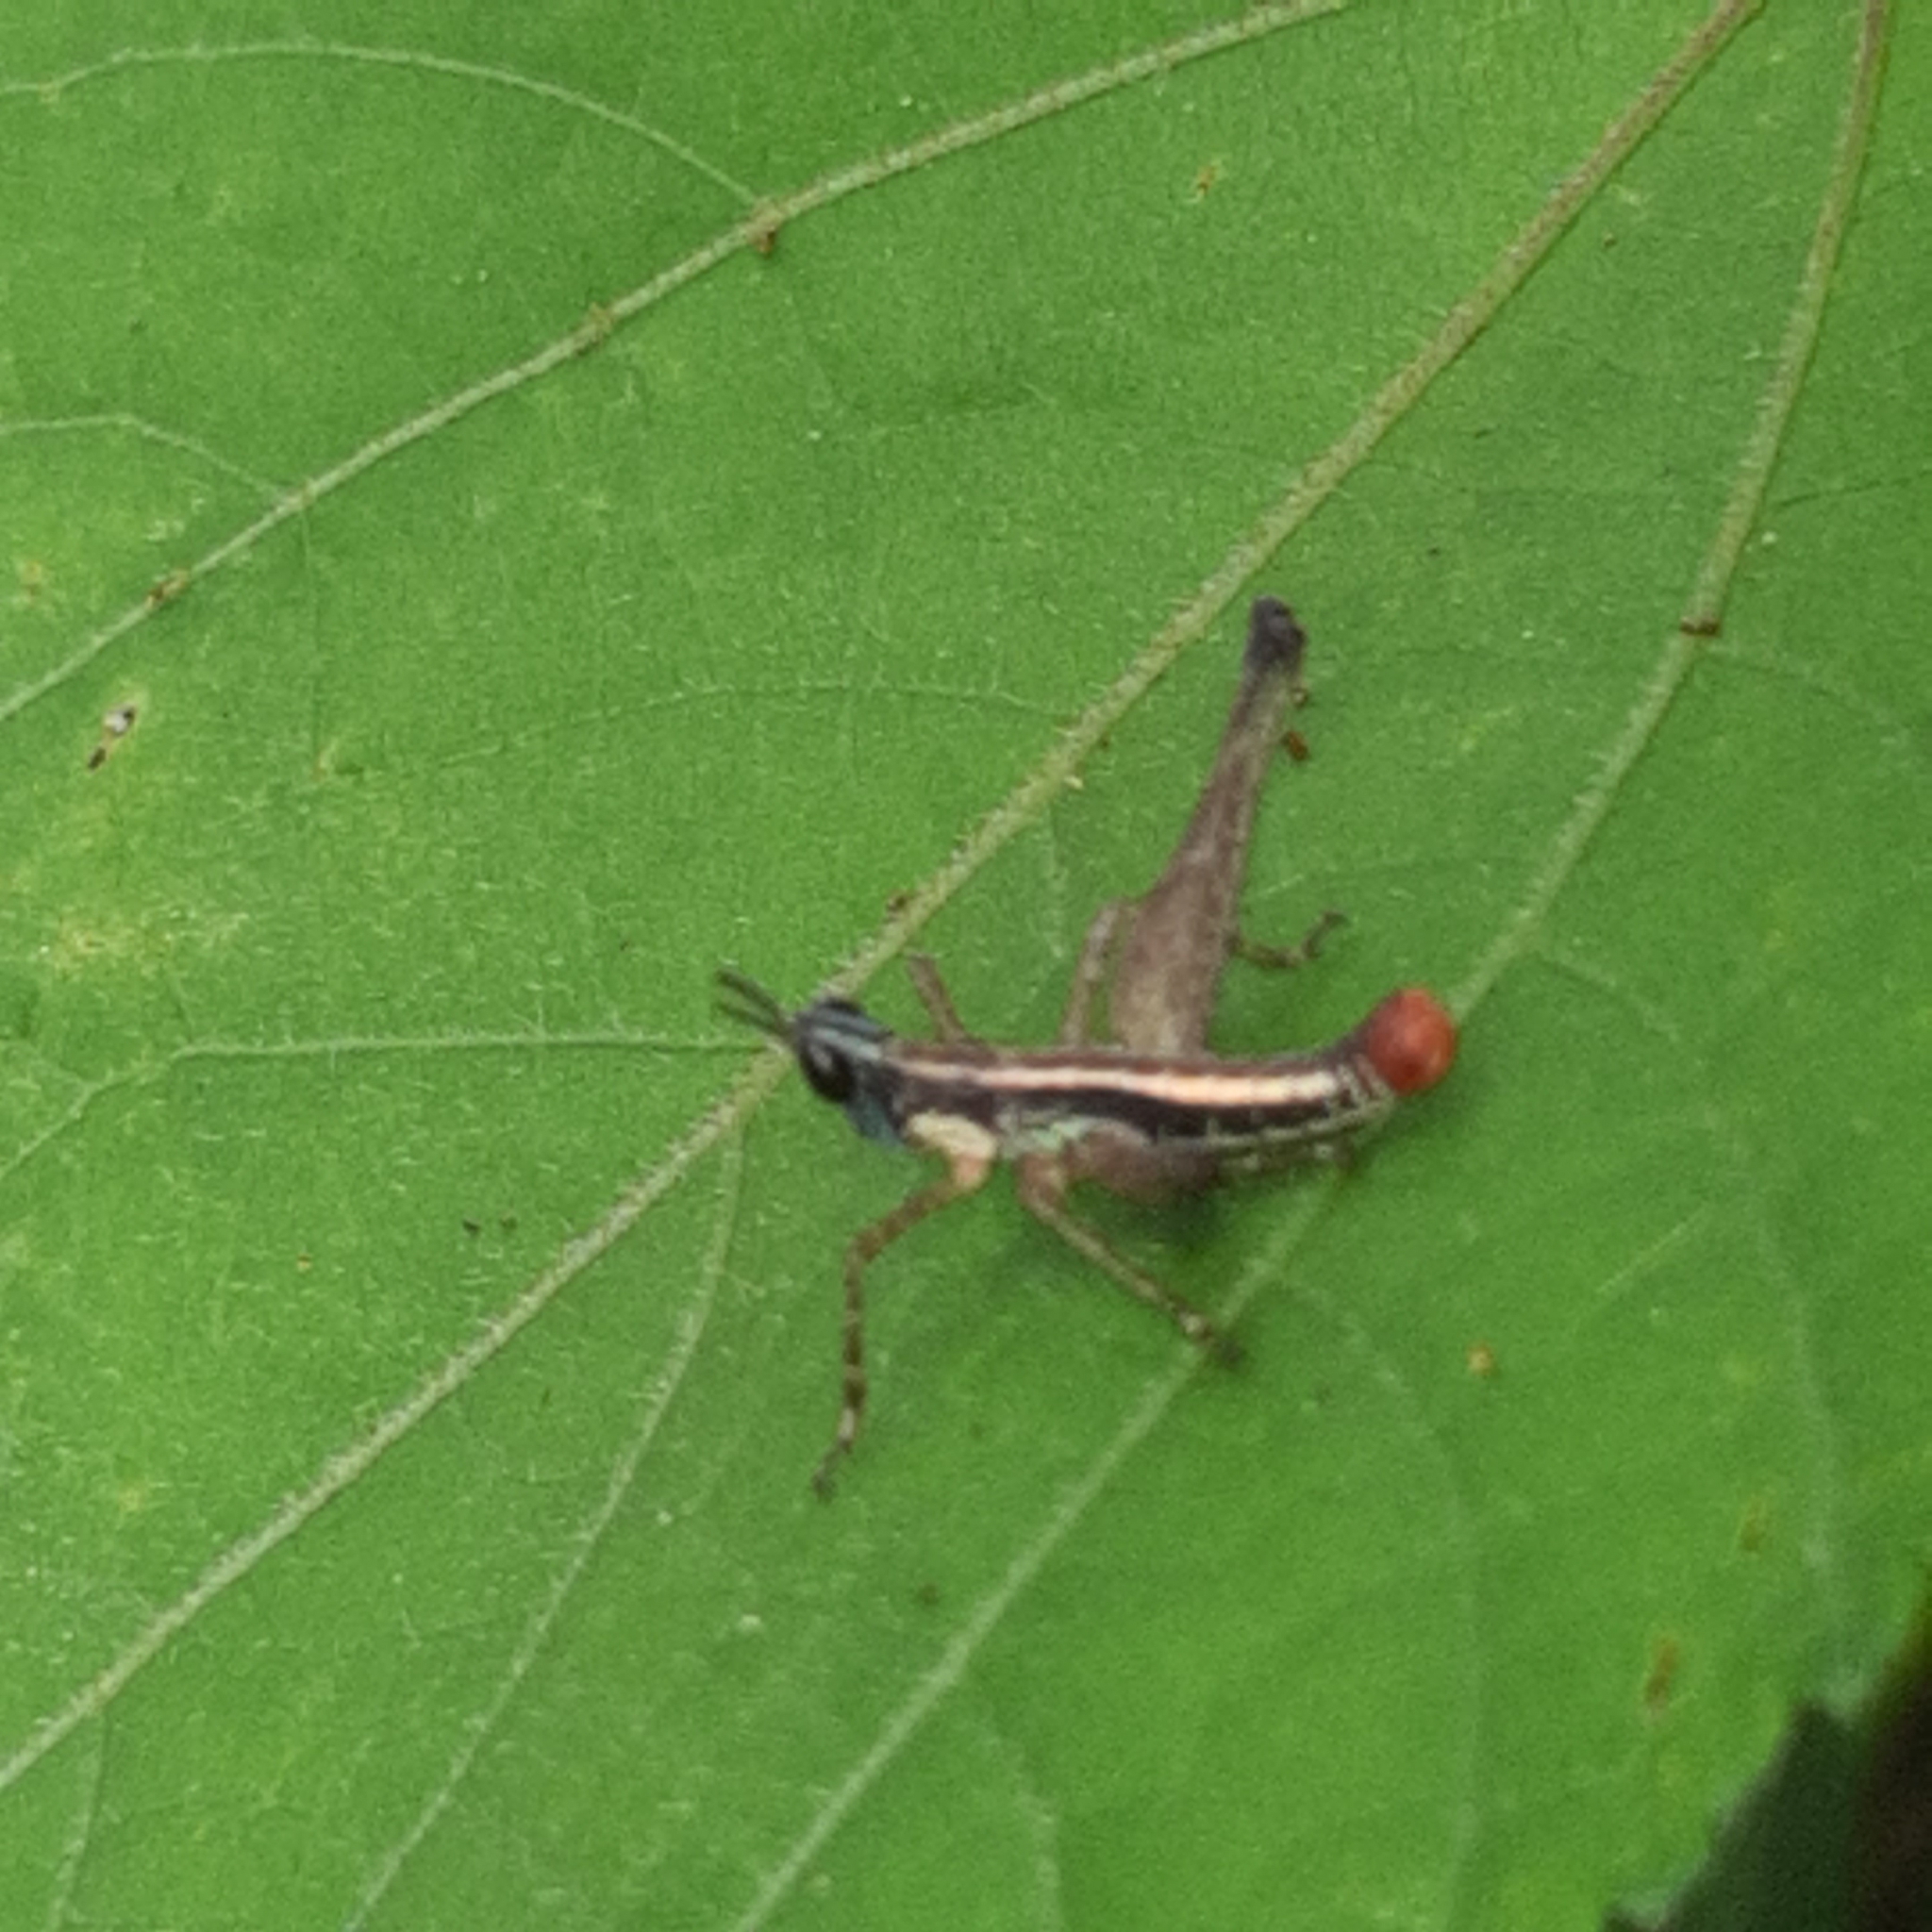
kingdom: Animalia
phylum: Arthropoda
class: Insecta
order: Orthoptera
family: Episactidae
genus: Episactus
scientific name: Episactus tristani
